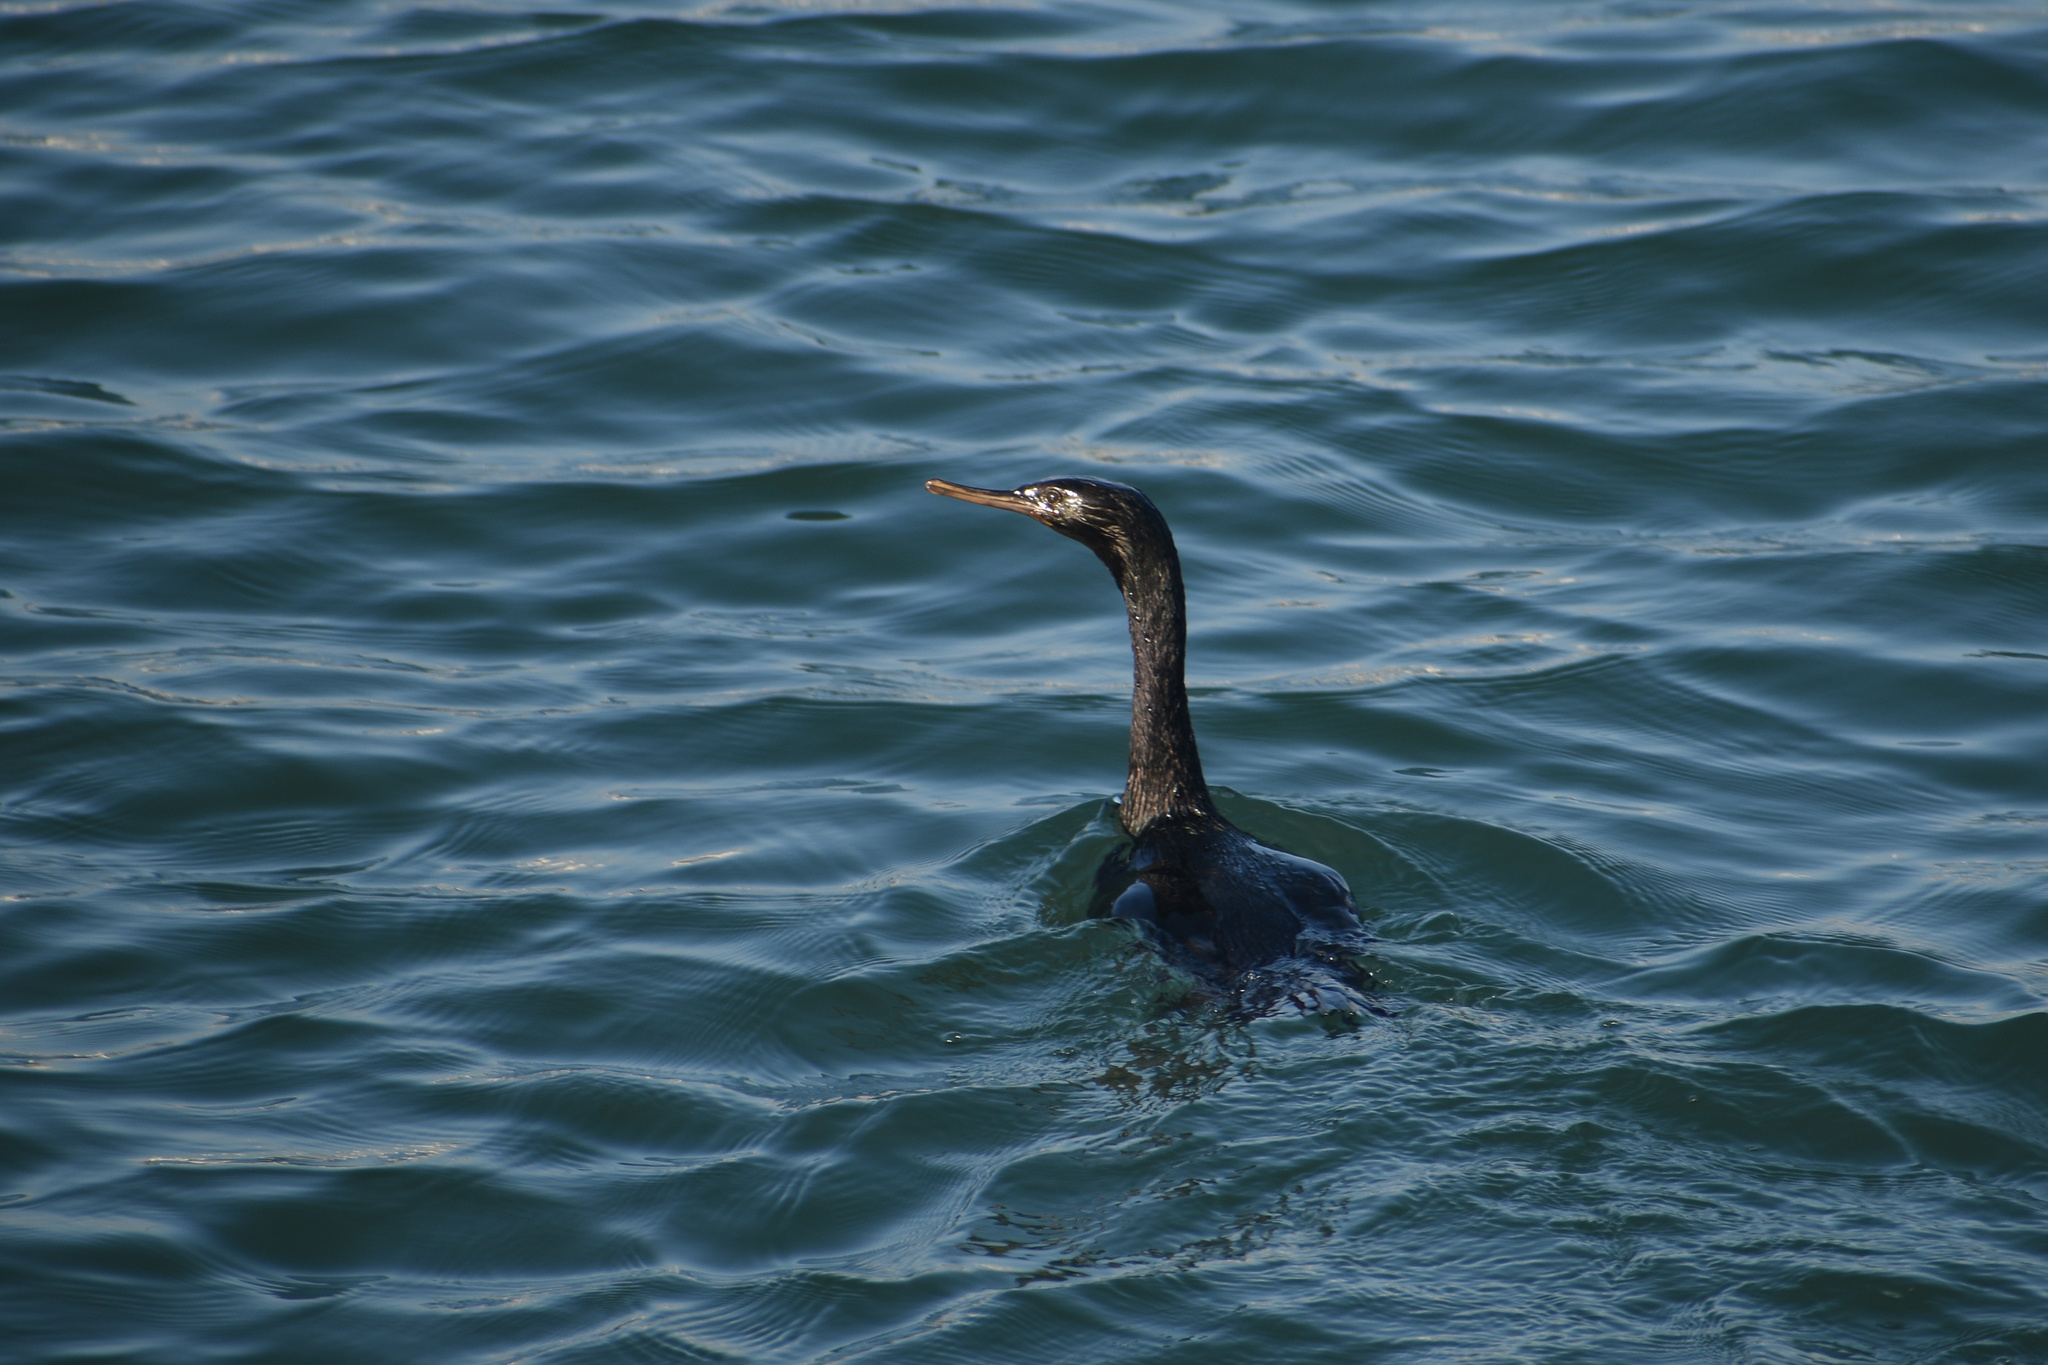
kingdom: Animalia
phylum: Chordata
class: Aves
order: Suliformes
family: Phalacrocoracidae
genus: Phalacrocorax
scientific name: Phalacrocorax pelagicus
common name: Pelagic cormorant
